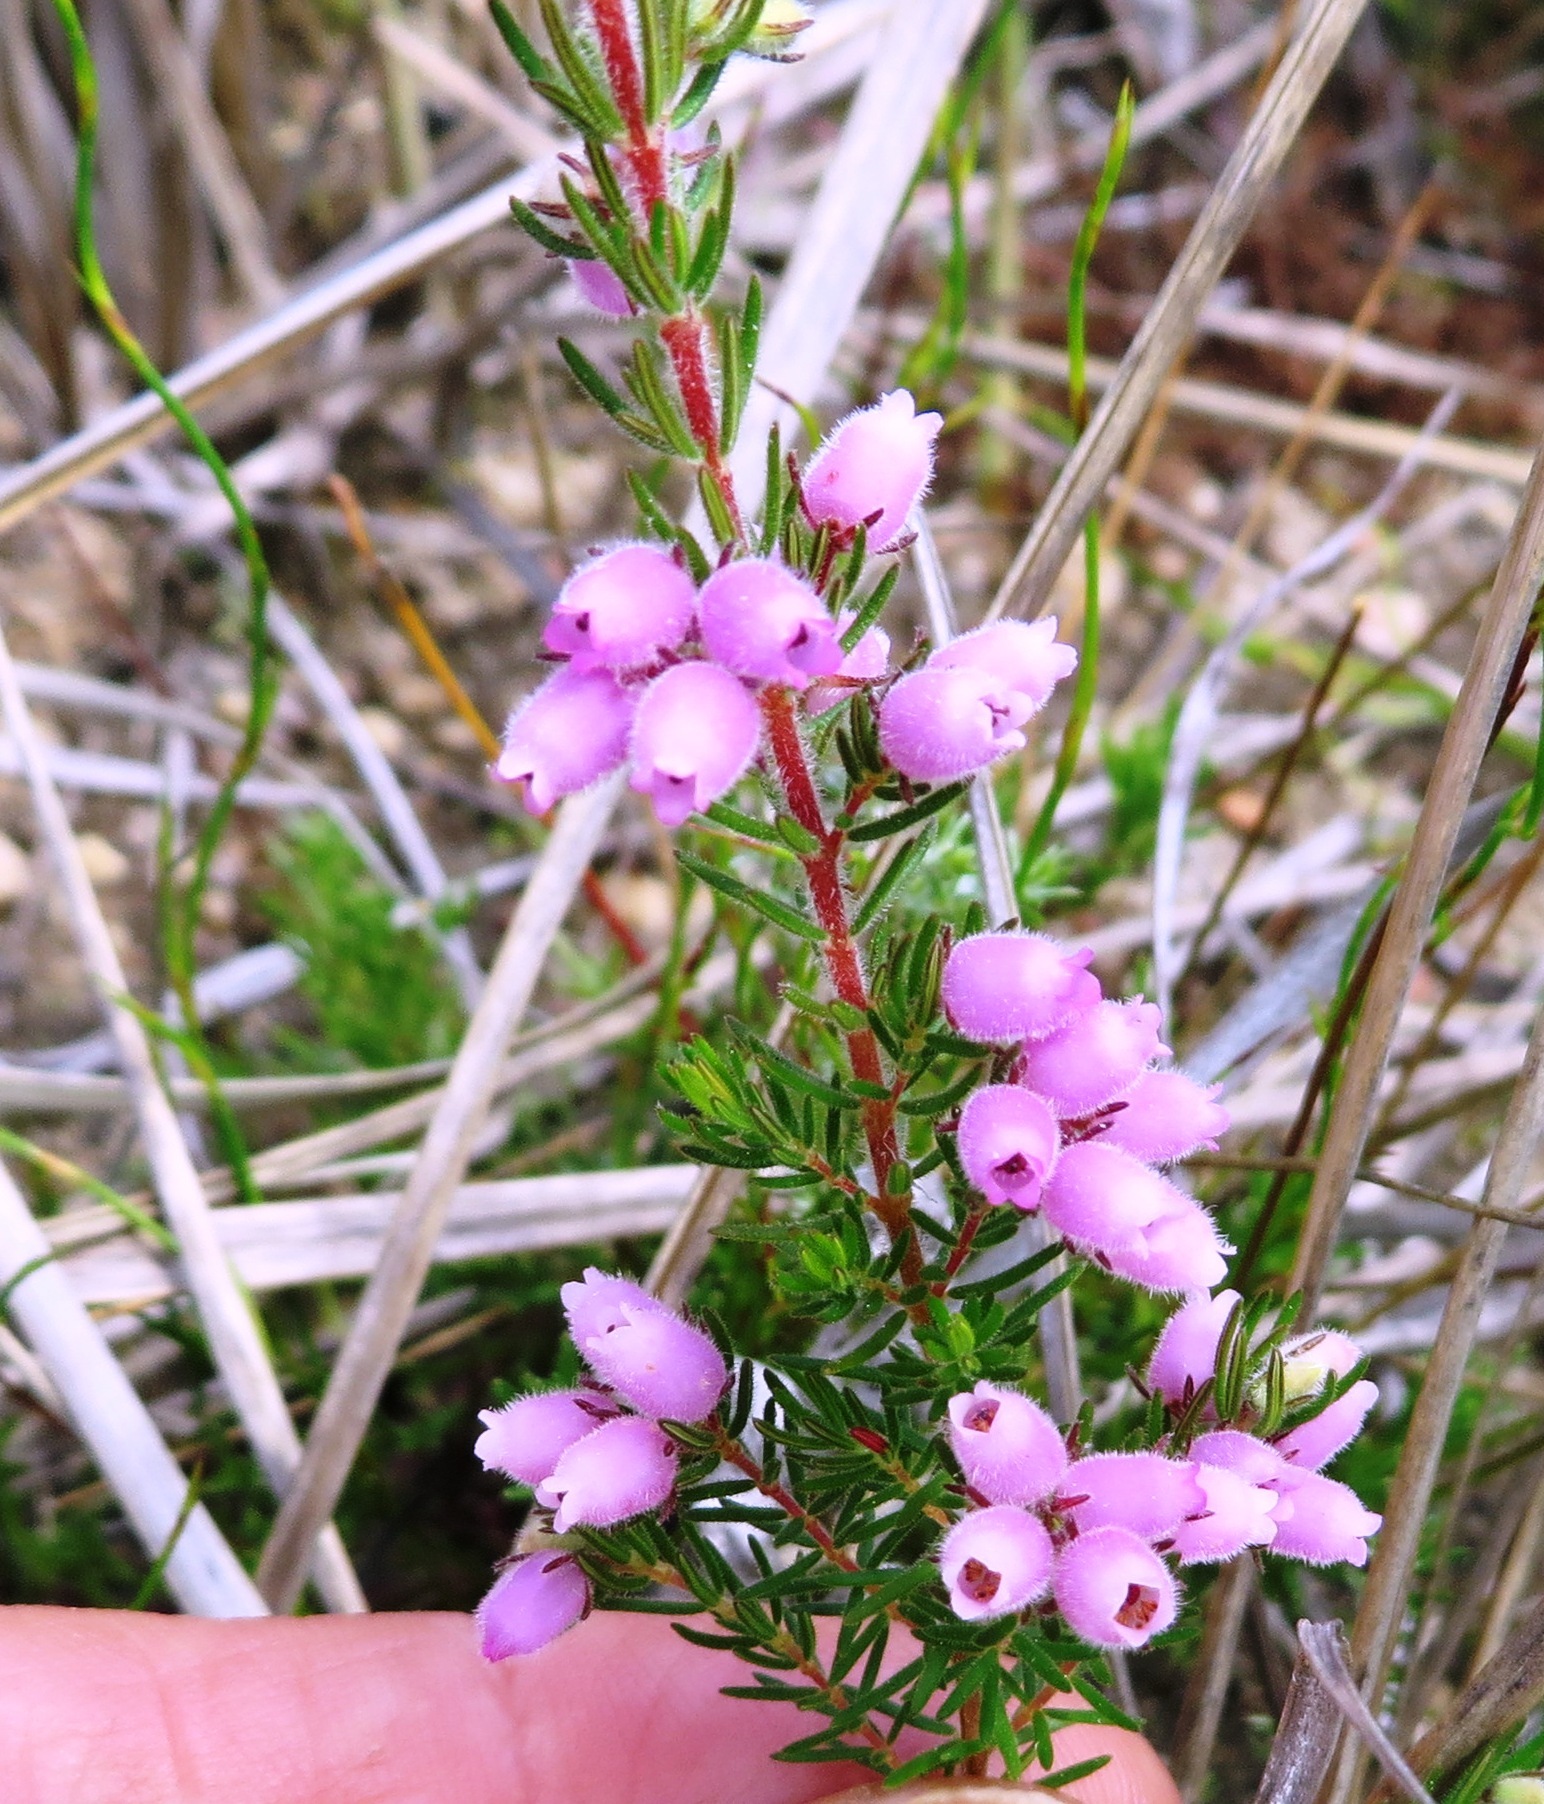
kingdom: Plantae
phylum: Tracheophyta
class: Magnoliopsida
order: Ericales
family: Ericaceae
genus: Erica
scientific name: Erica hirtiflora
